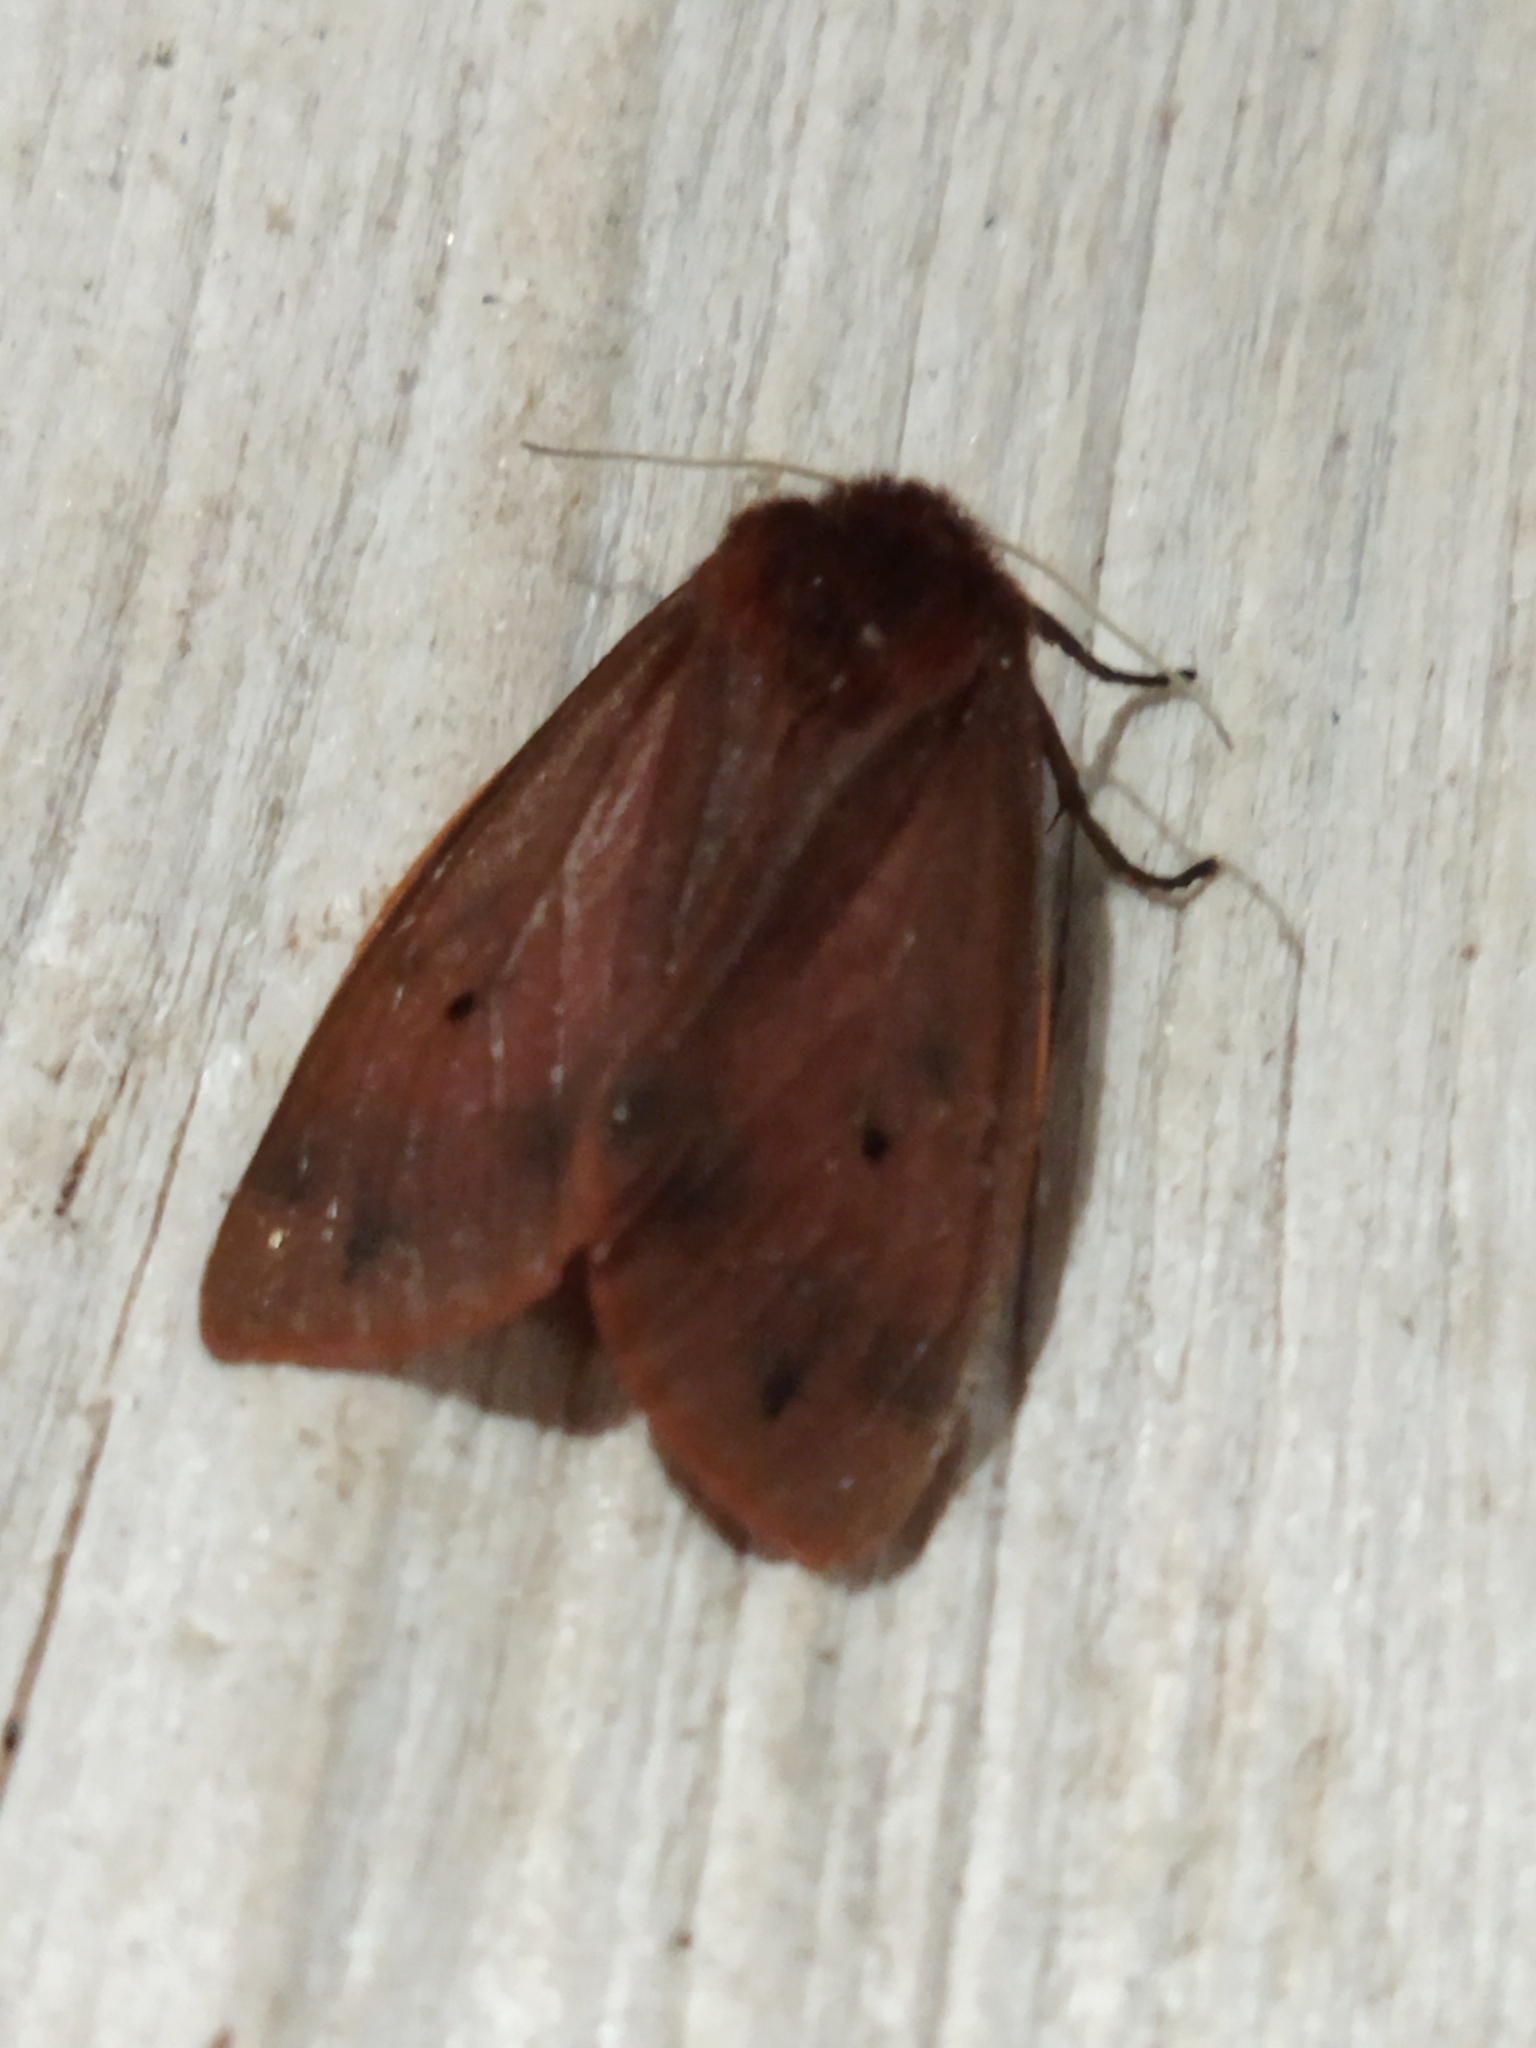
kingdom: Animalia
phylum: Arthropoda
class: Insecta
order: Lepidoptera
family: Erebidae
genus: Phragmatobia
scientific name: Phragmatobia fuliginosa
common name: Ruby tiger
